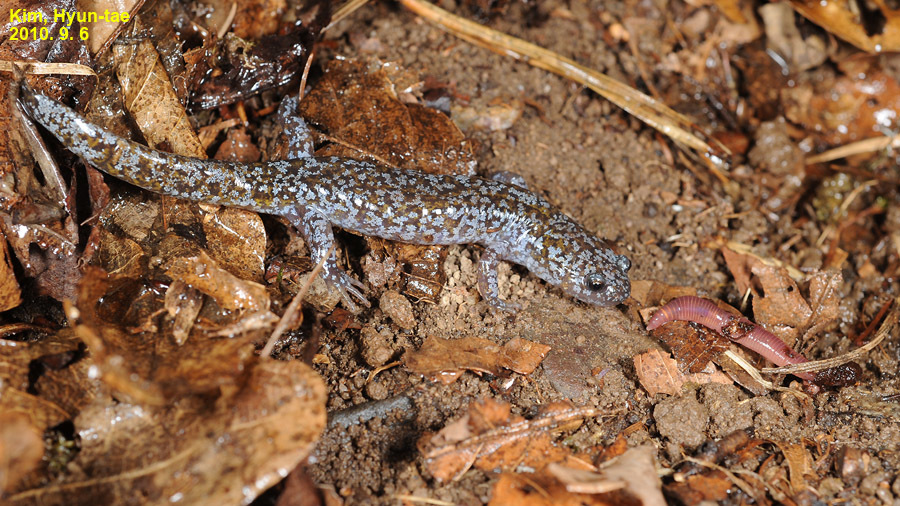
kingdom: Animalia
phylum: Chordata
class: Amphibia
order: Caudata
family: Hynobiidae
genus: Hynobius
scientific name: Hynobius leechii
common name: Gensan salamander
